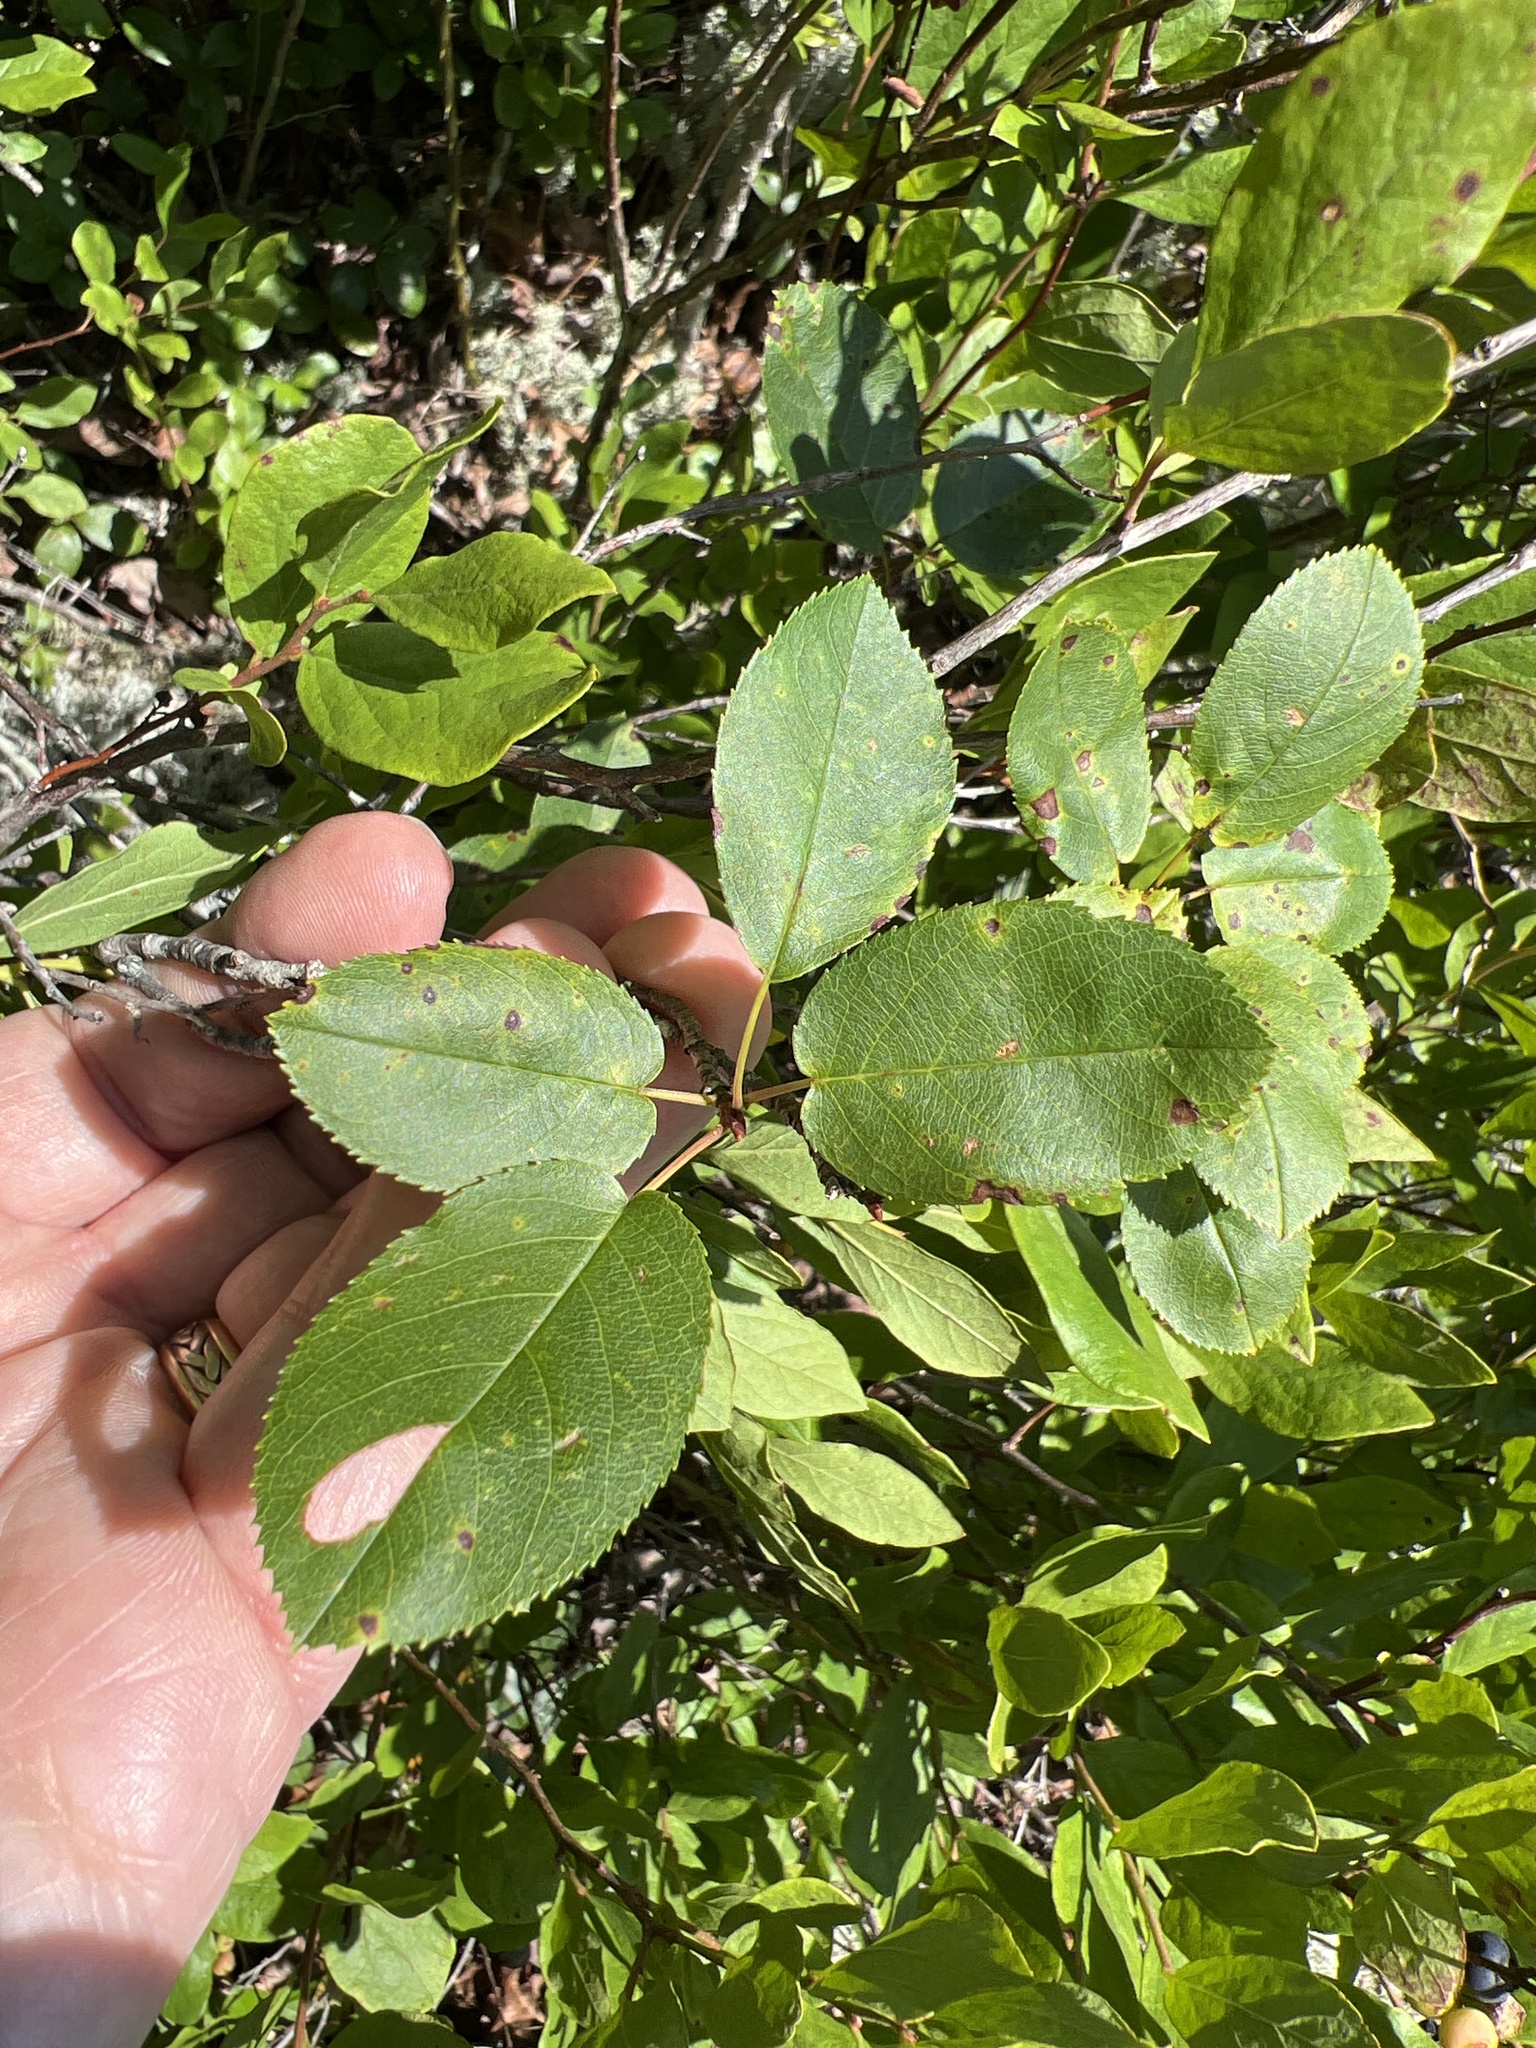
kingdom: Plantae
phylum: Tracheophyta
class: Magnoliopsida
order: Rosales
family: Rosaceae
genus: Amelanchier
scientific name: Amelanchier
